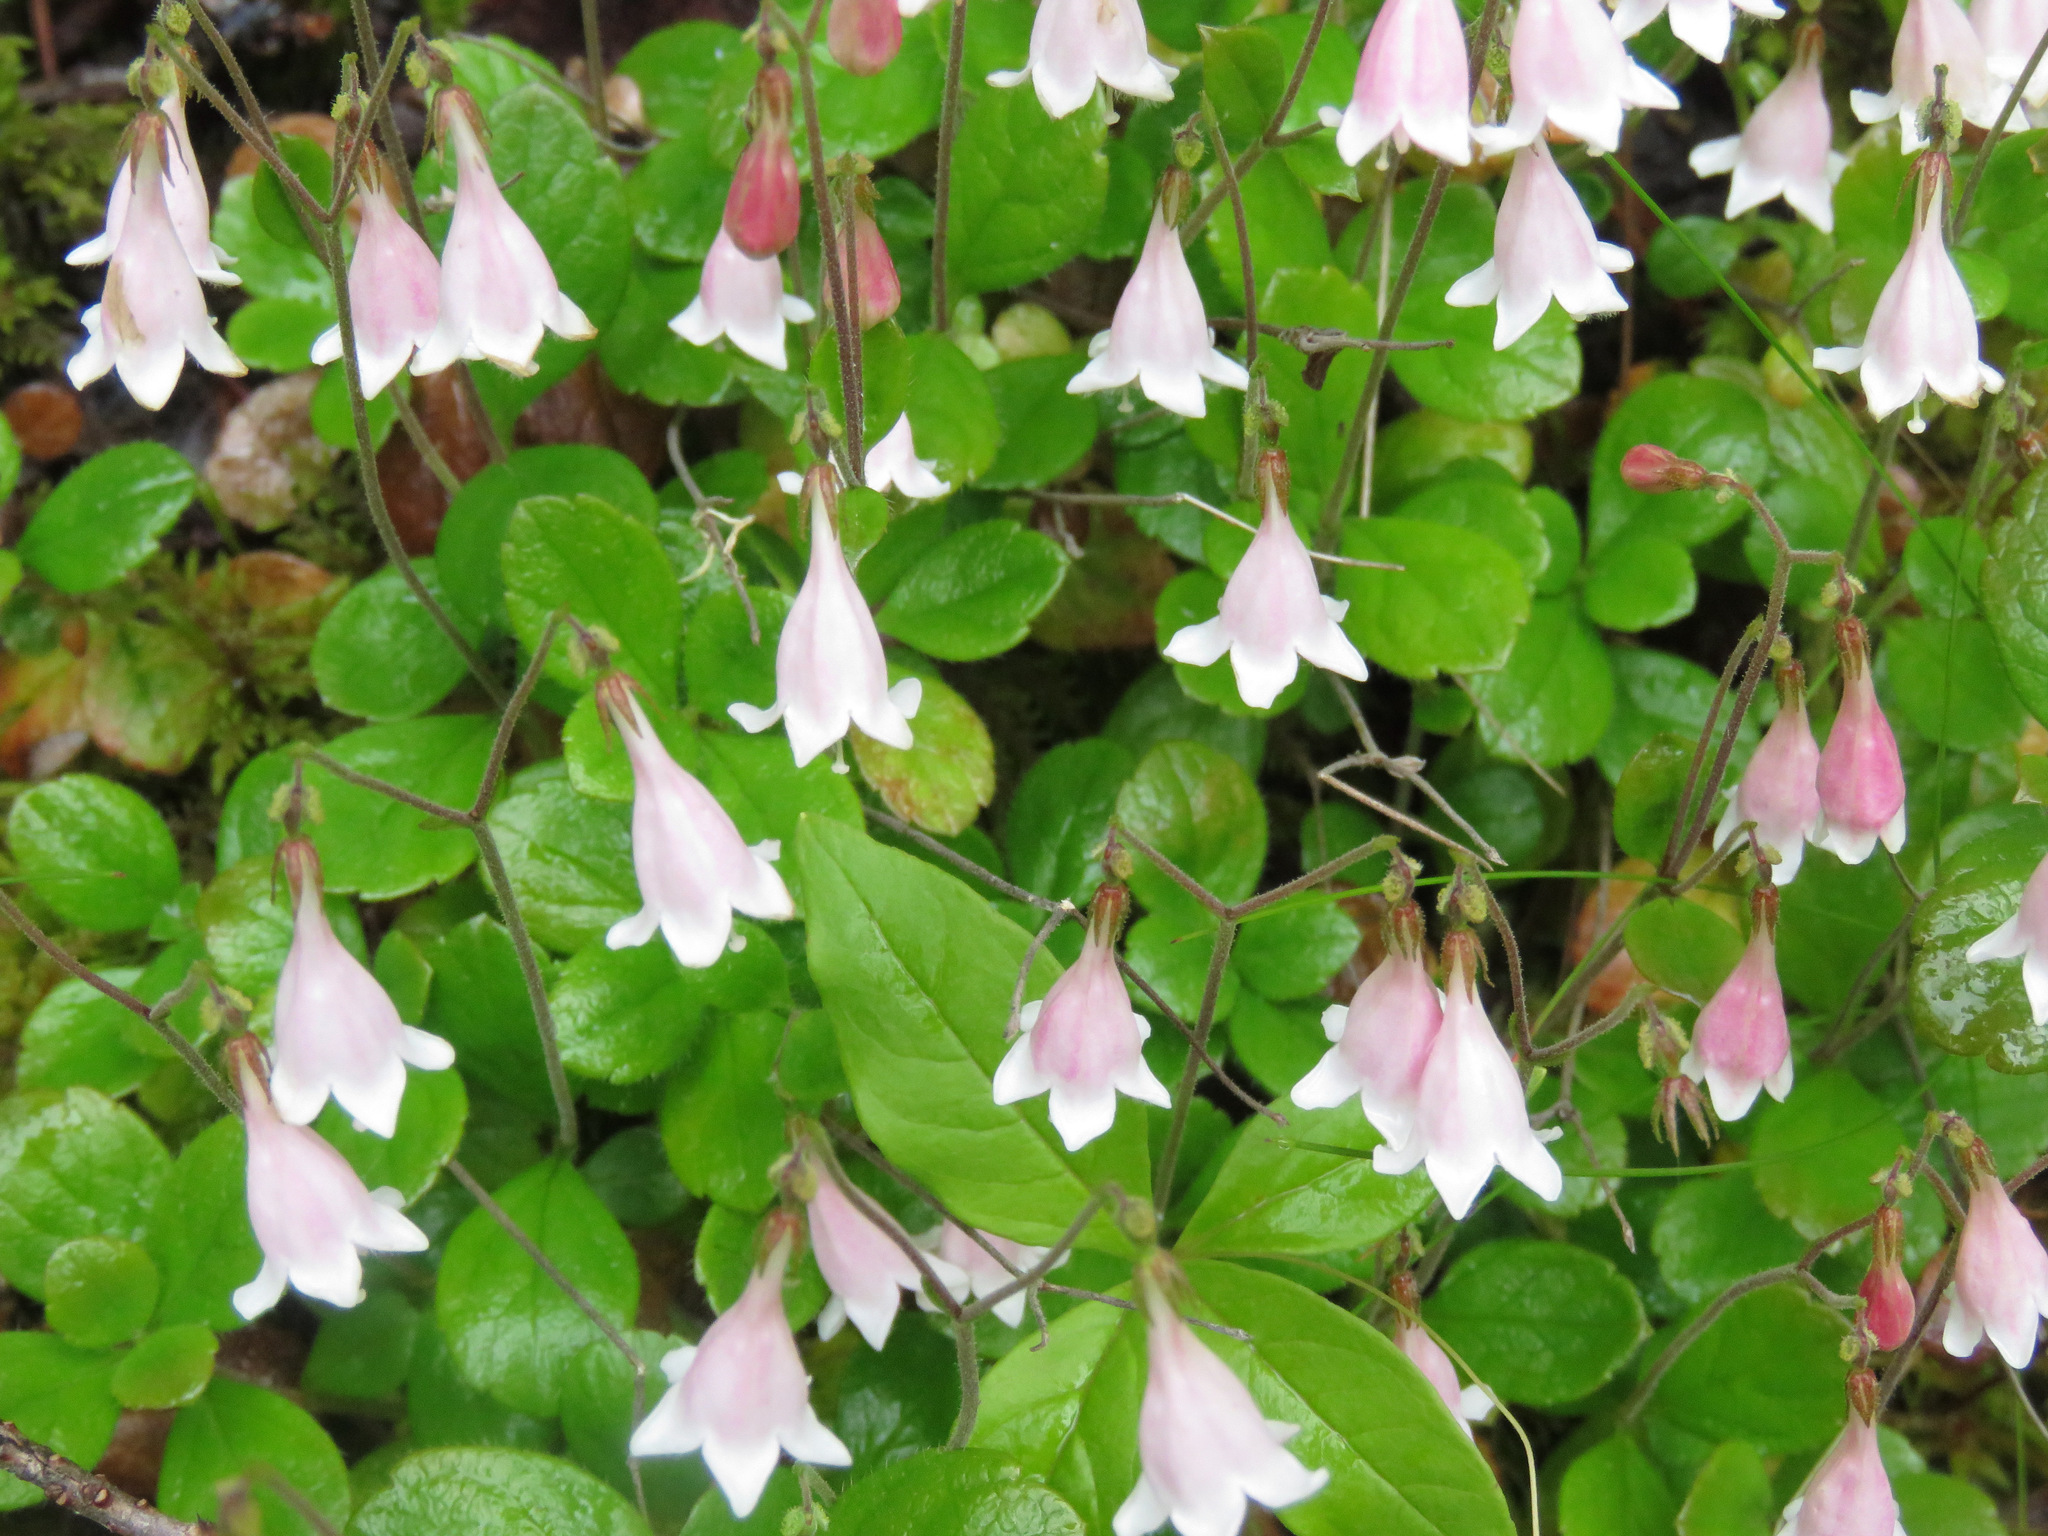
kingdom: Plantae
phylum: Tracheophyta
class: Magnoliopsida
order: Dipsacales
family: Caprifoliaceae
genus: Linnaea
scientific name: Linnaea borealis
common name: Twinflower
